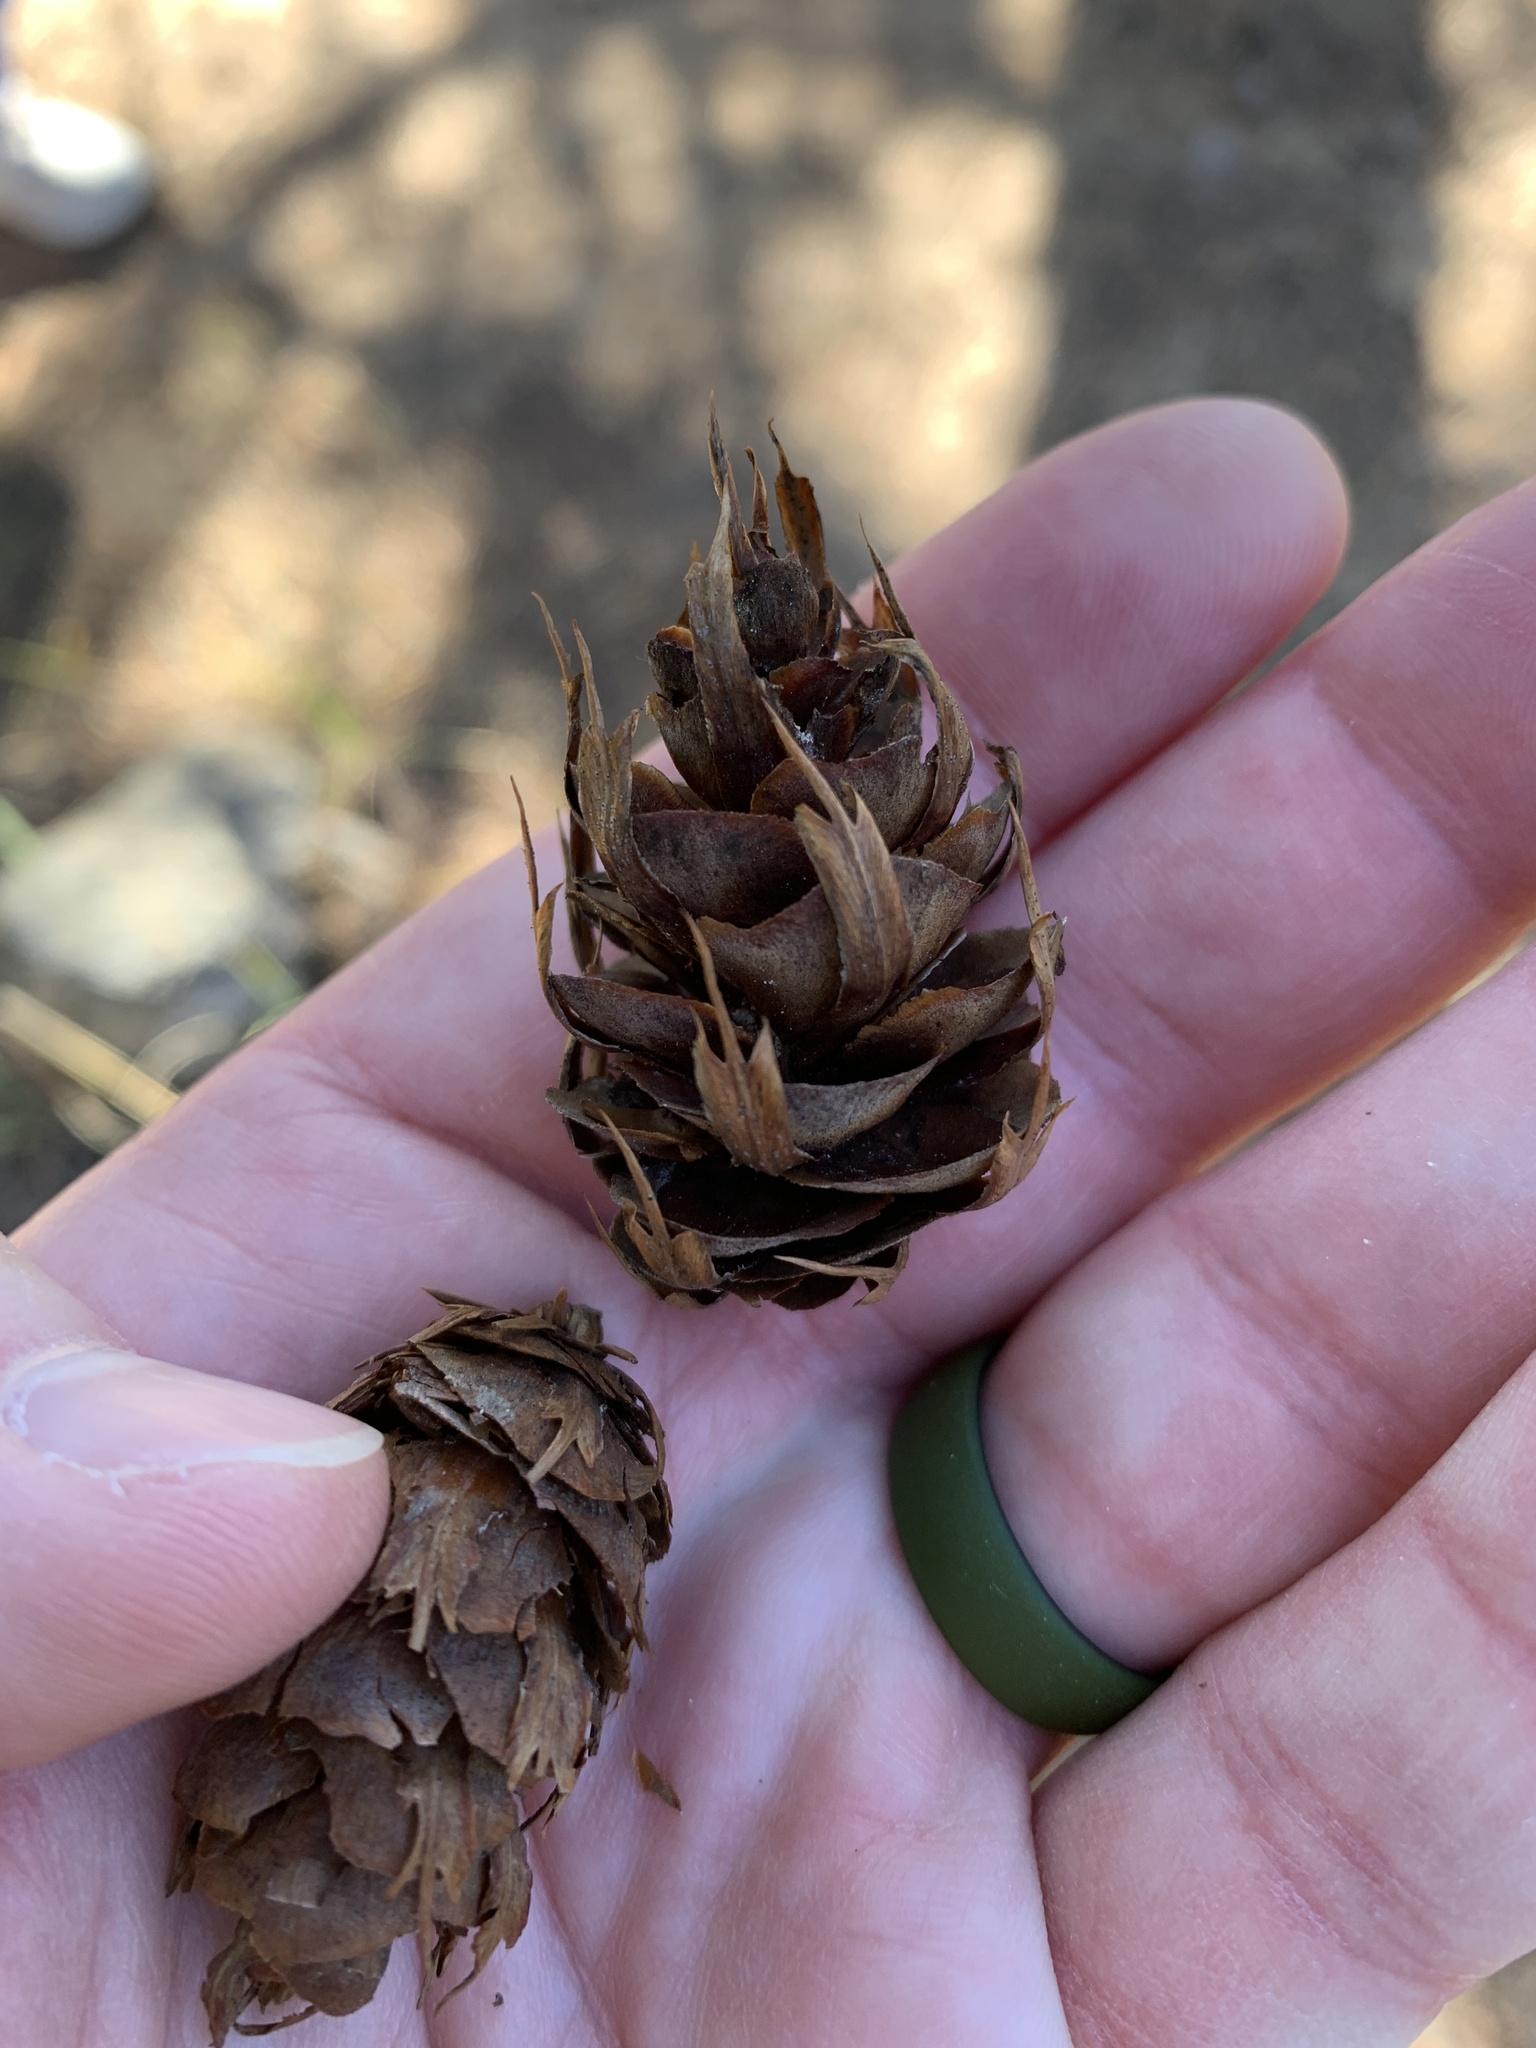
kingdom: Plantae
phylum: Tracheophyta
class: Pinopsida
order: Pinales
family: Pinaceae
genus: Pseudotsuga
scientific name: Pseudotsuga menziesii
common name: Douglas fir
